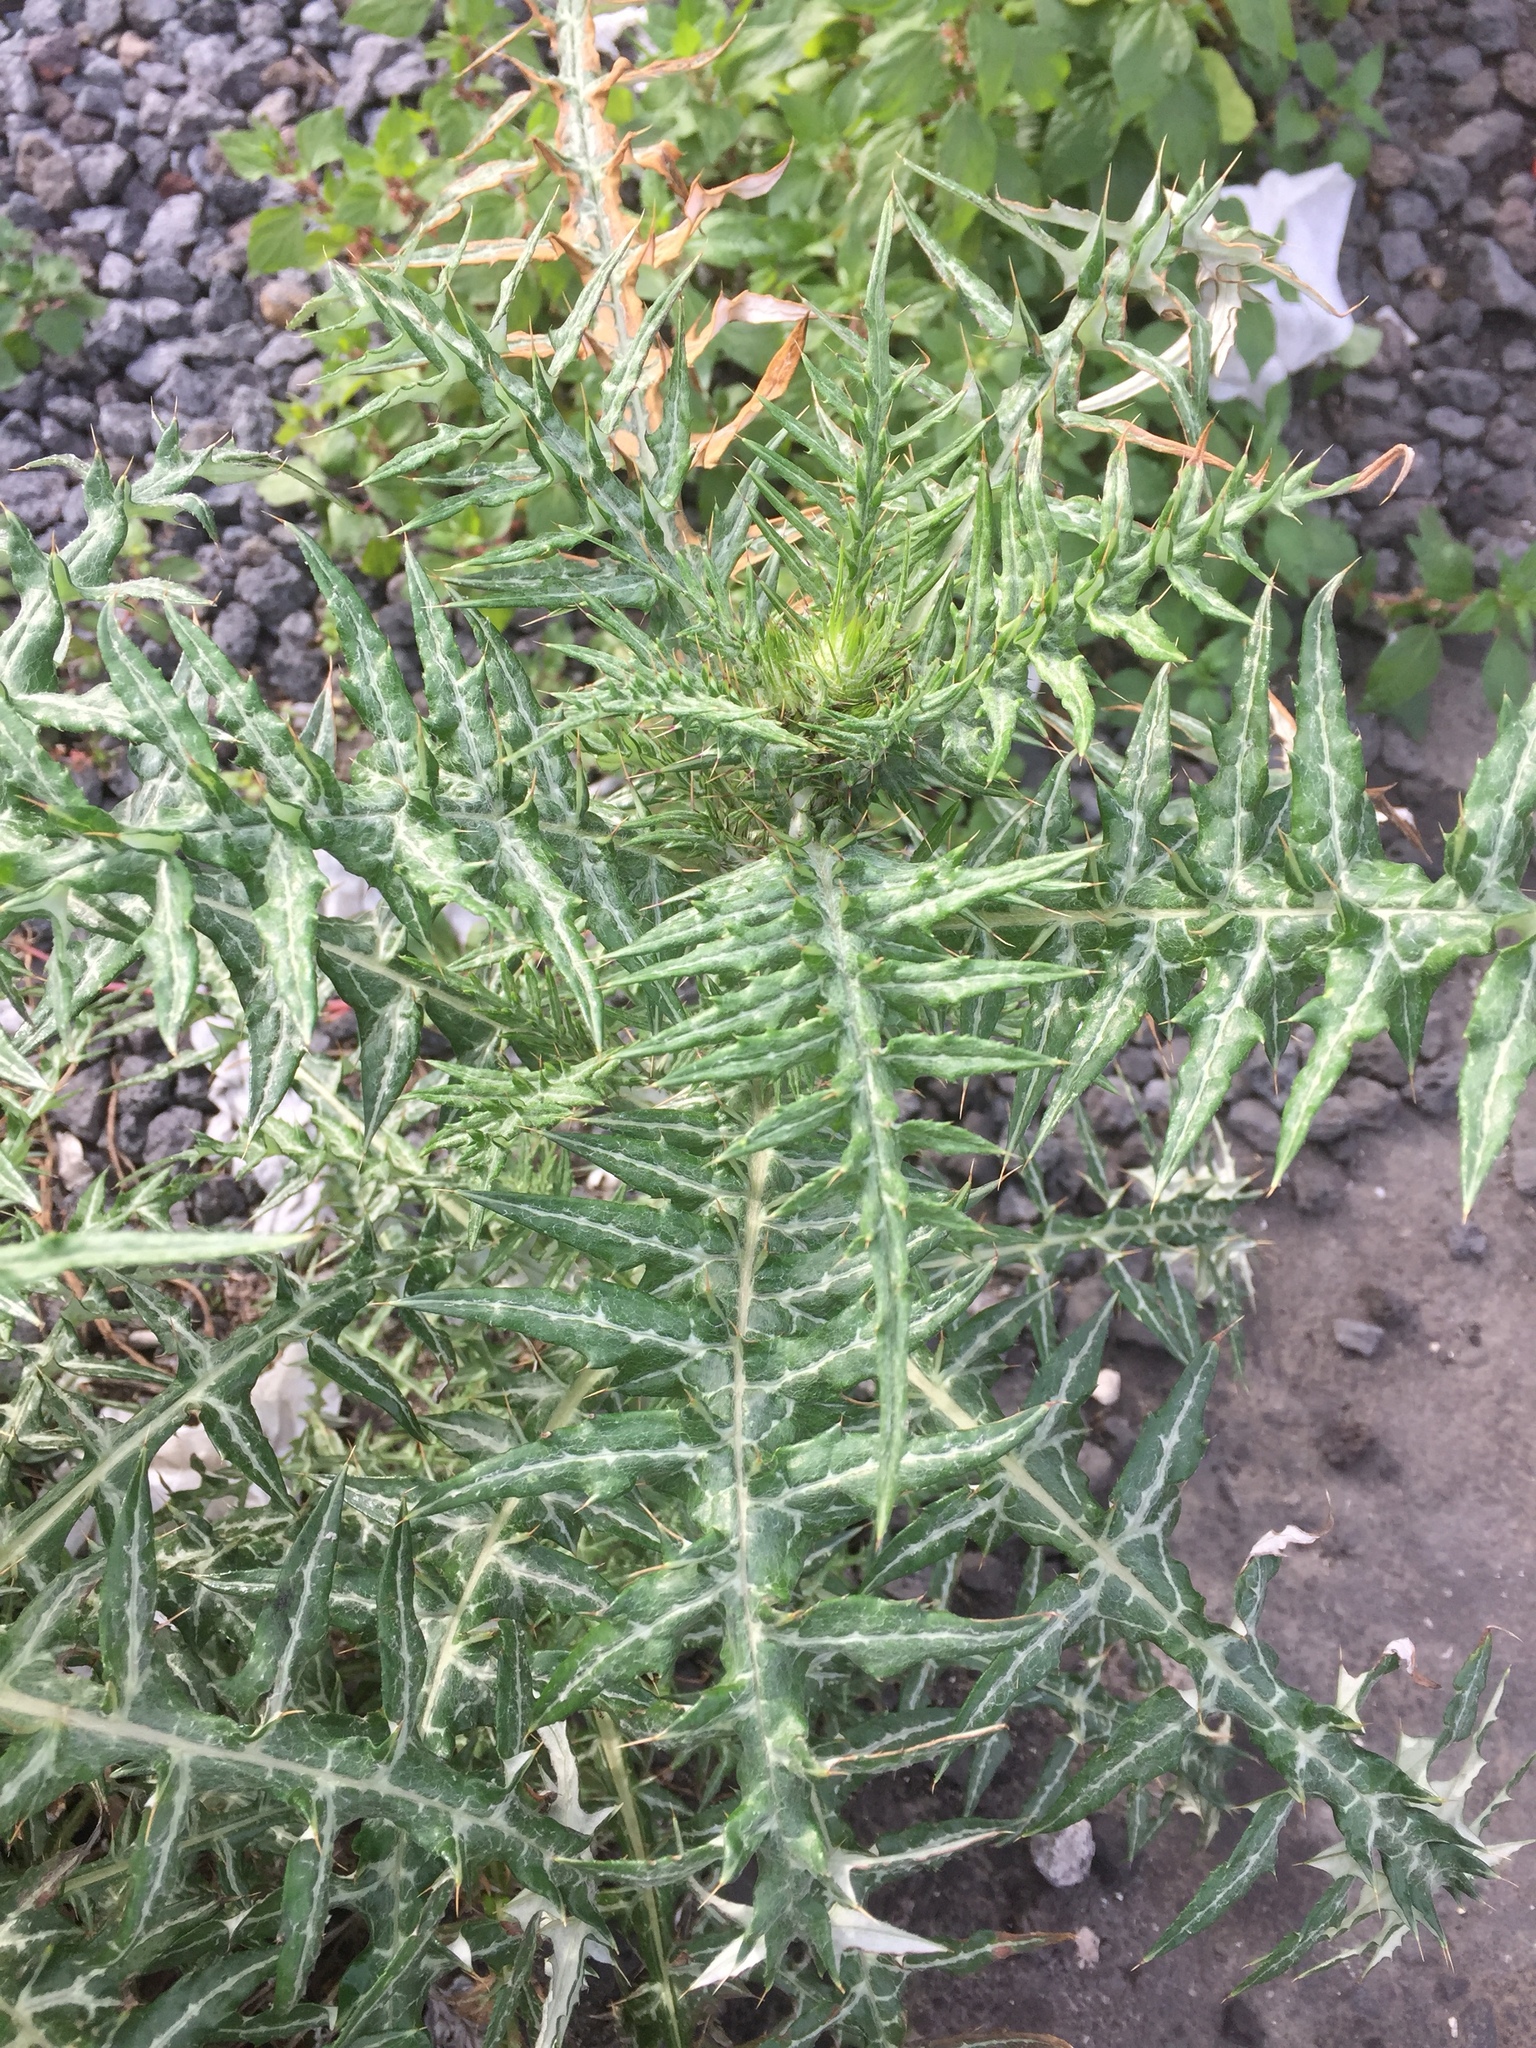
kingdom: Plantae
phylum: Tracheophyta
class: Magnoliopsida
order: Asterales
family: Asteraceae
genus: Galactites
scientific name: Galactites tomentosa
